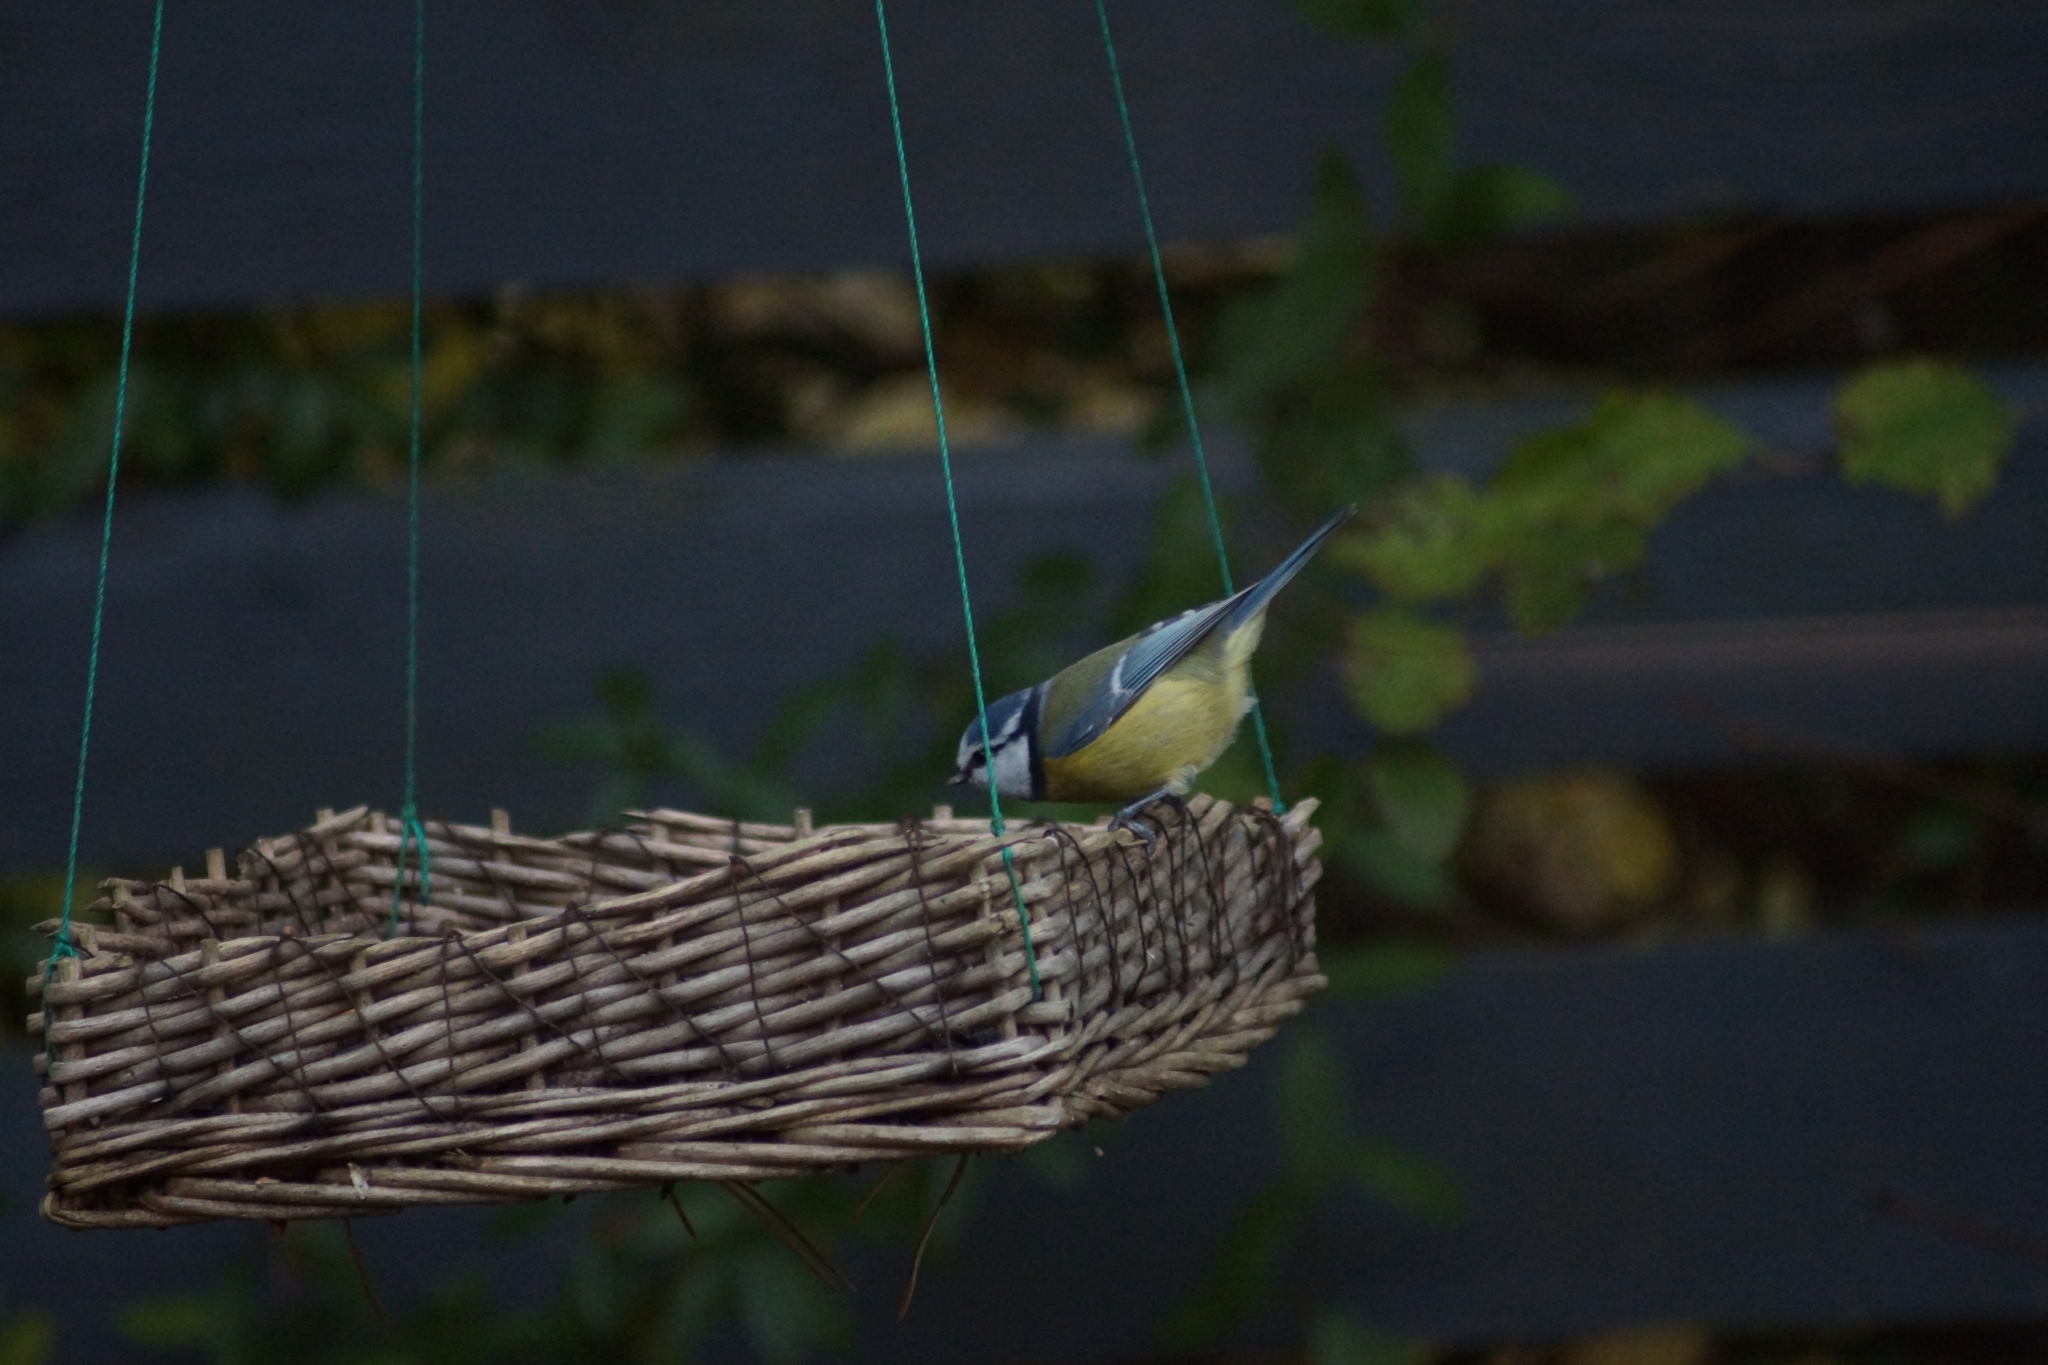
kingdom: Animalia
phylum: Chordata
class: Aves
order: Passeriformes
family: Paridae
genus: Cyanistes
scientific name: Cyanistes caeruleus
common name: Eurasian blue tit
